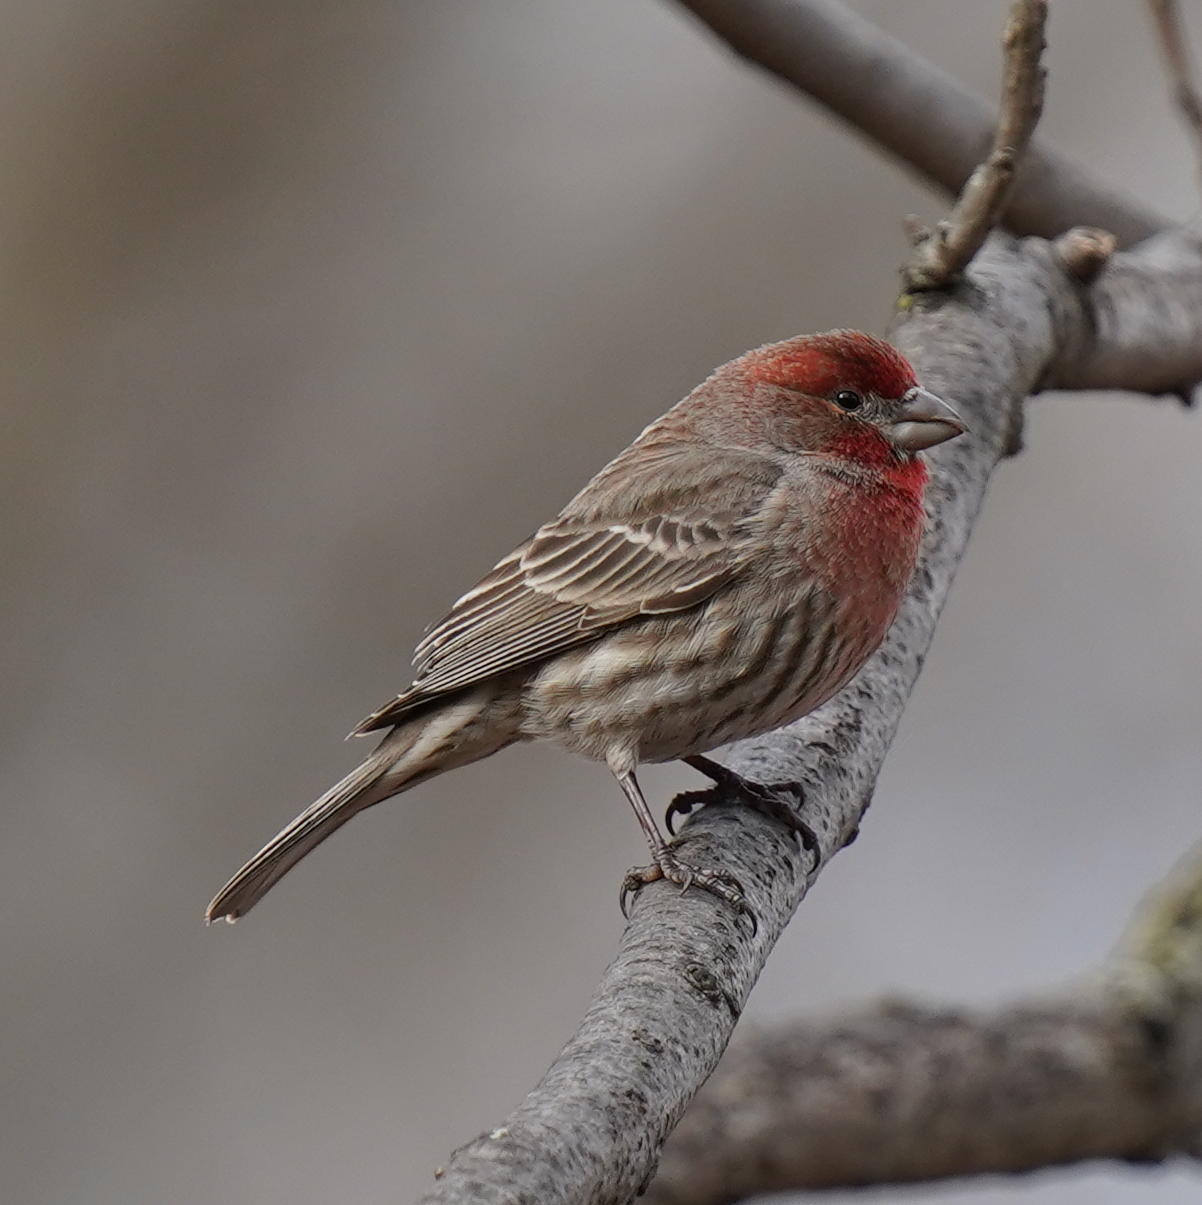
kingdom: Animalia
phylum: Chordata
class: Aves
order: Passeriformes
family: Fringillidae
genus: Haemorhous
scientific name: Haemorhous mexicanus
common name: House finch
